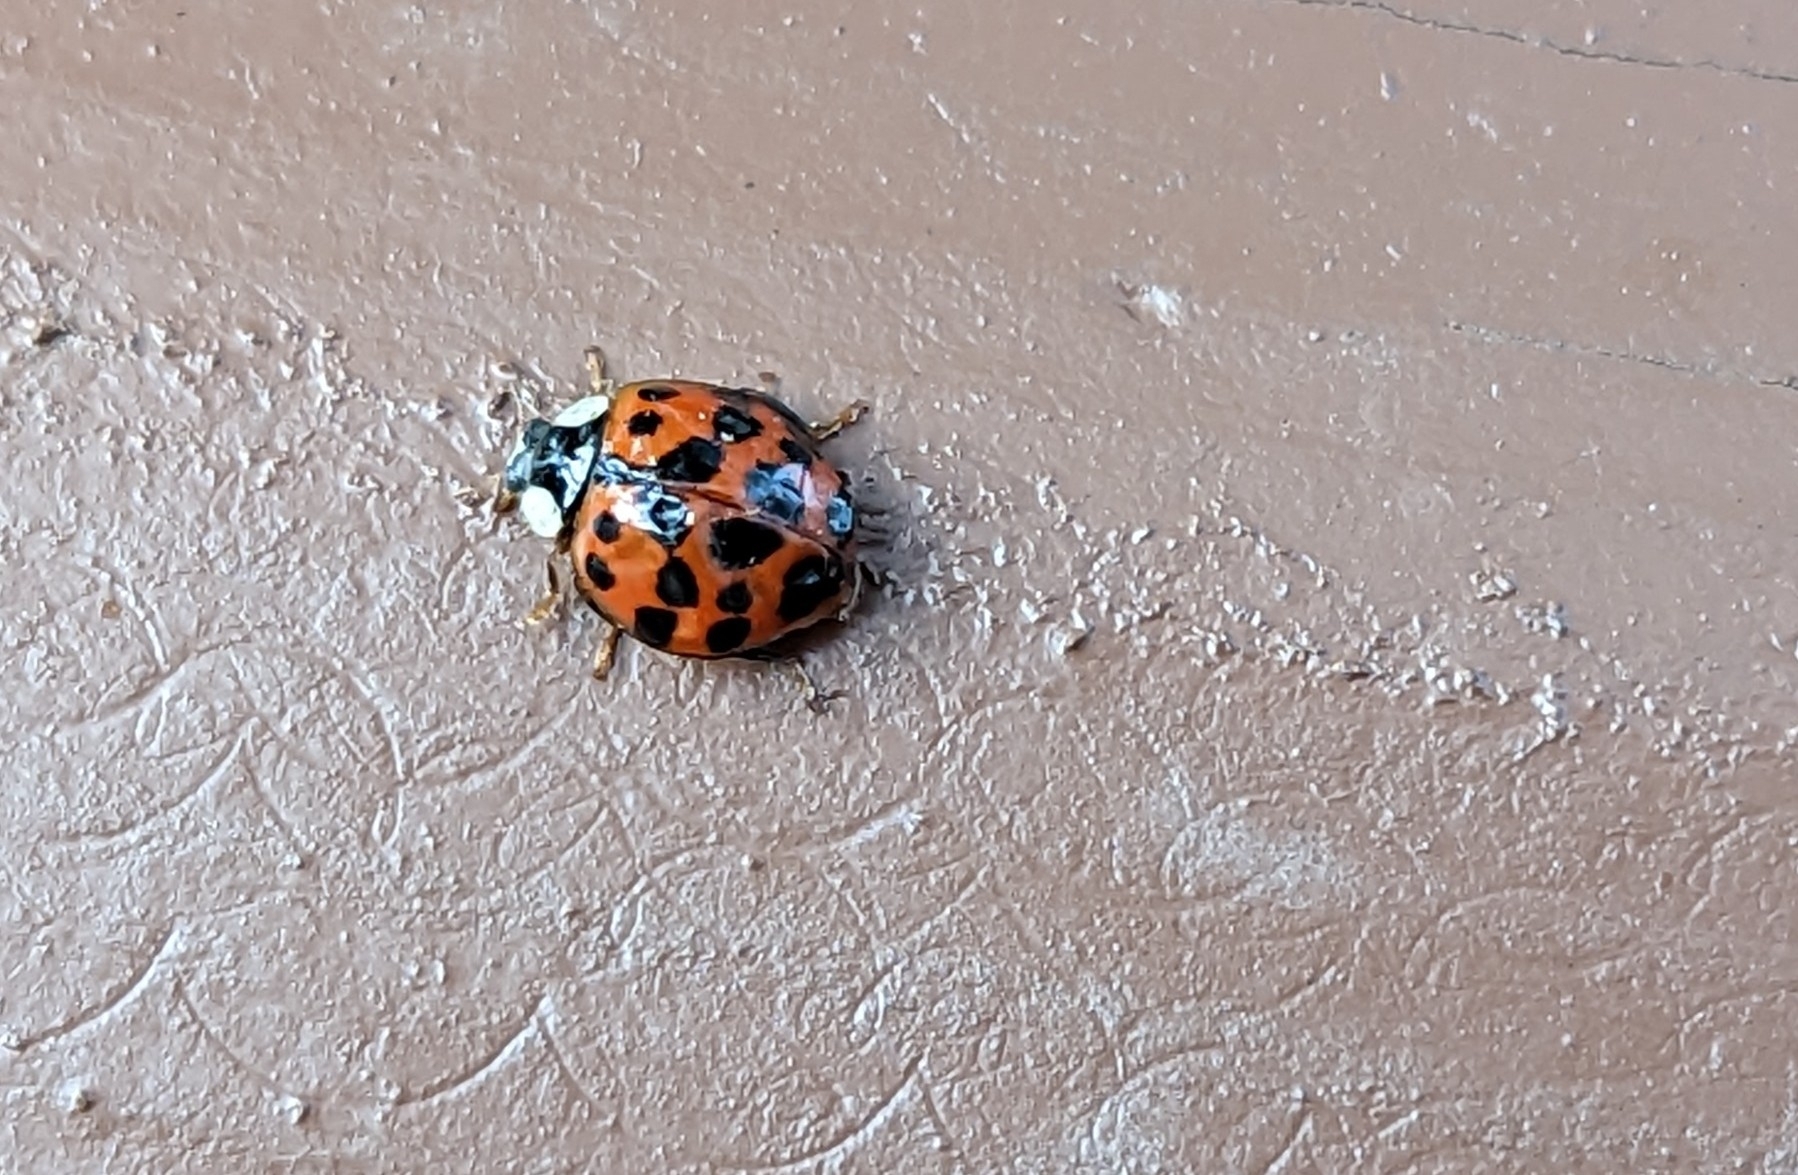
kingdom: Animalia
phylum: Arthropoda
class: Insecta
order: Coleoptera
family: Coccinellidae
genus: Harmonia
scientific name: Harmonia axyridis
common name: Harlequin ladybird
